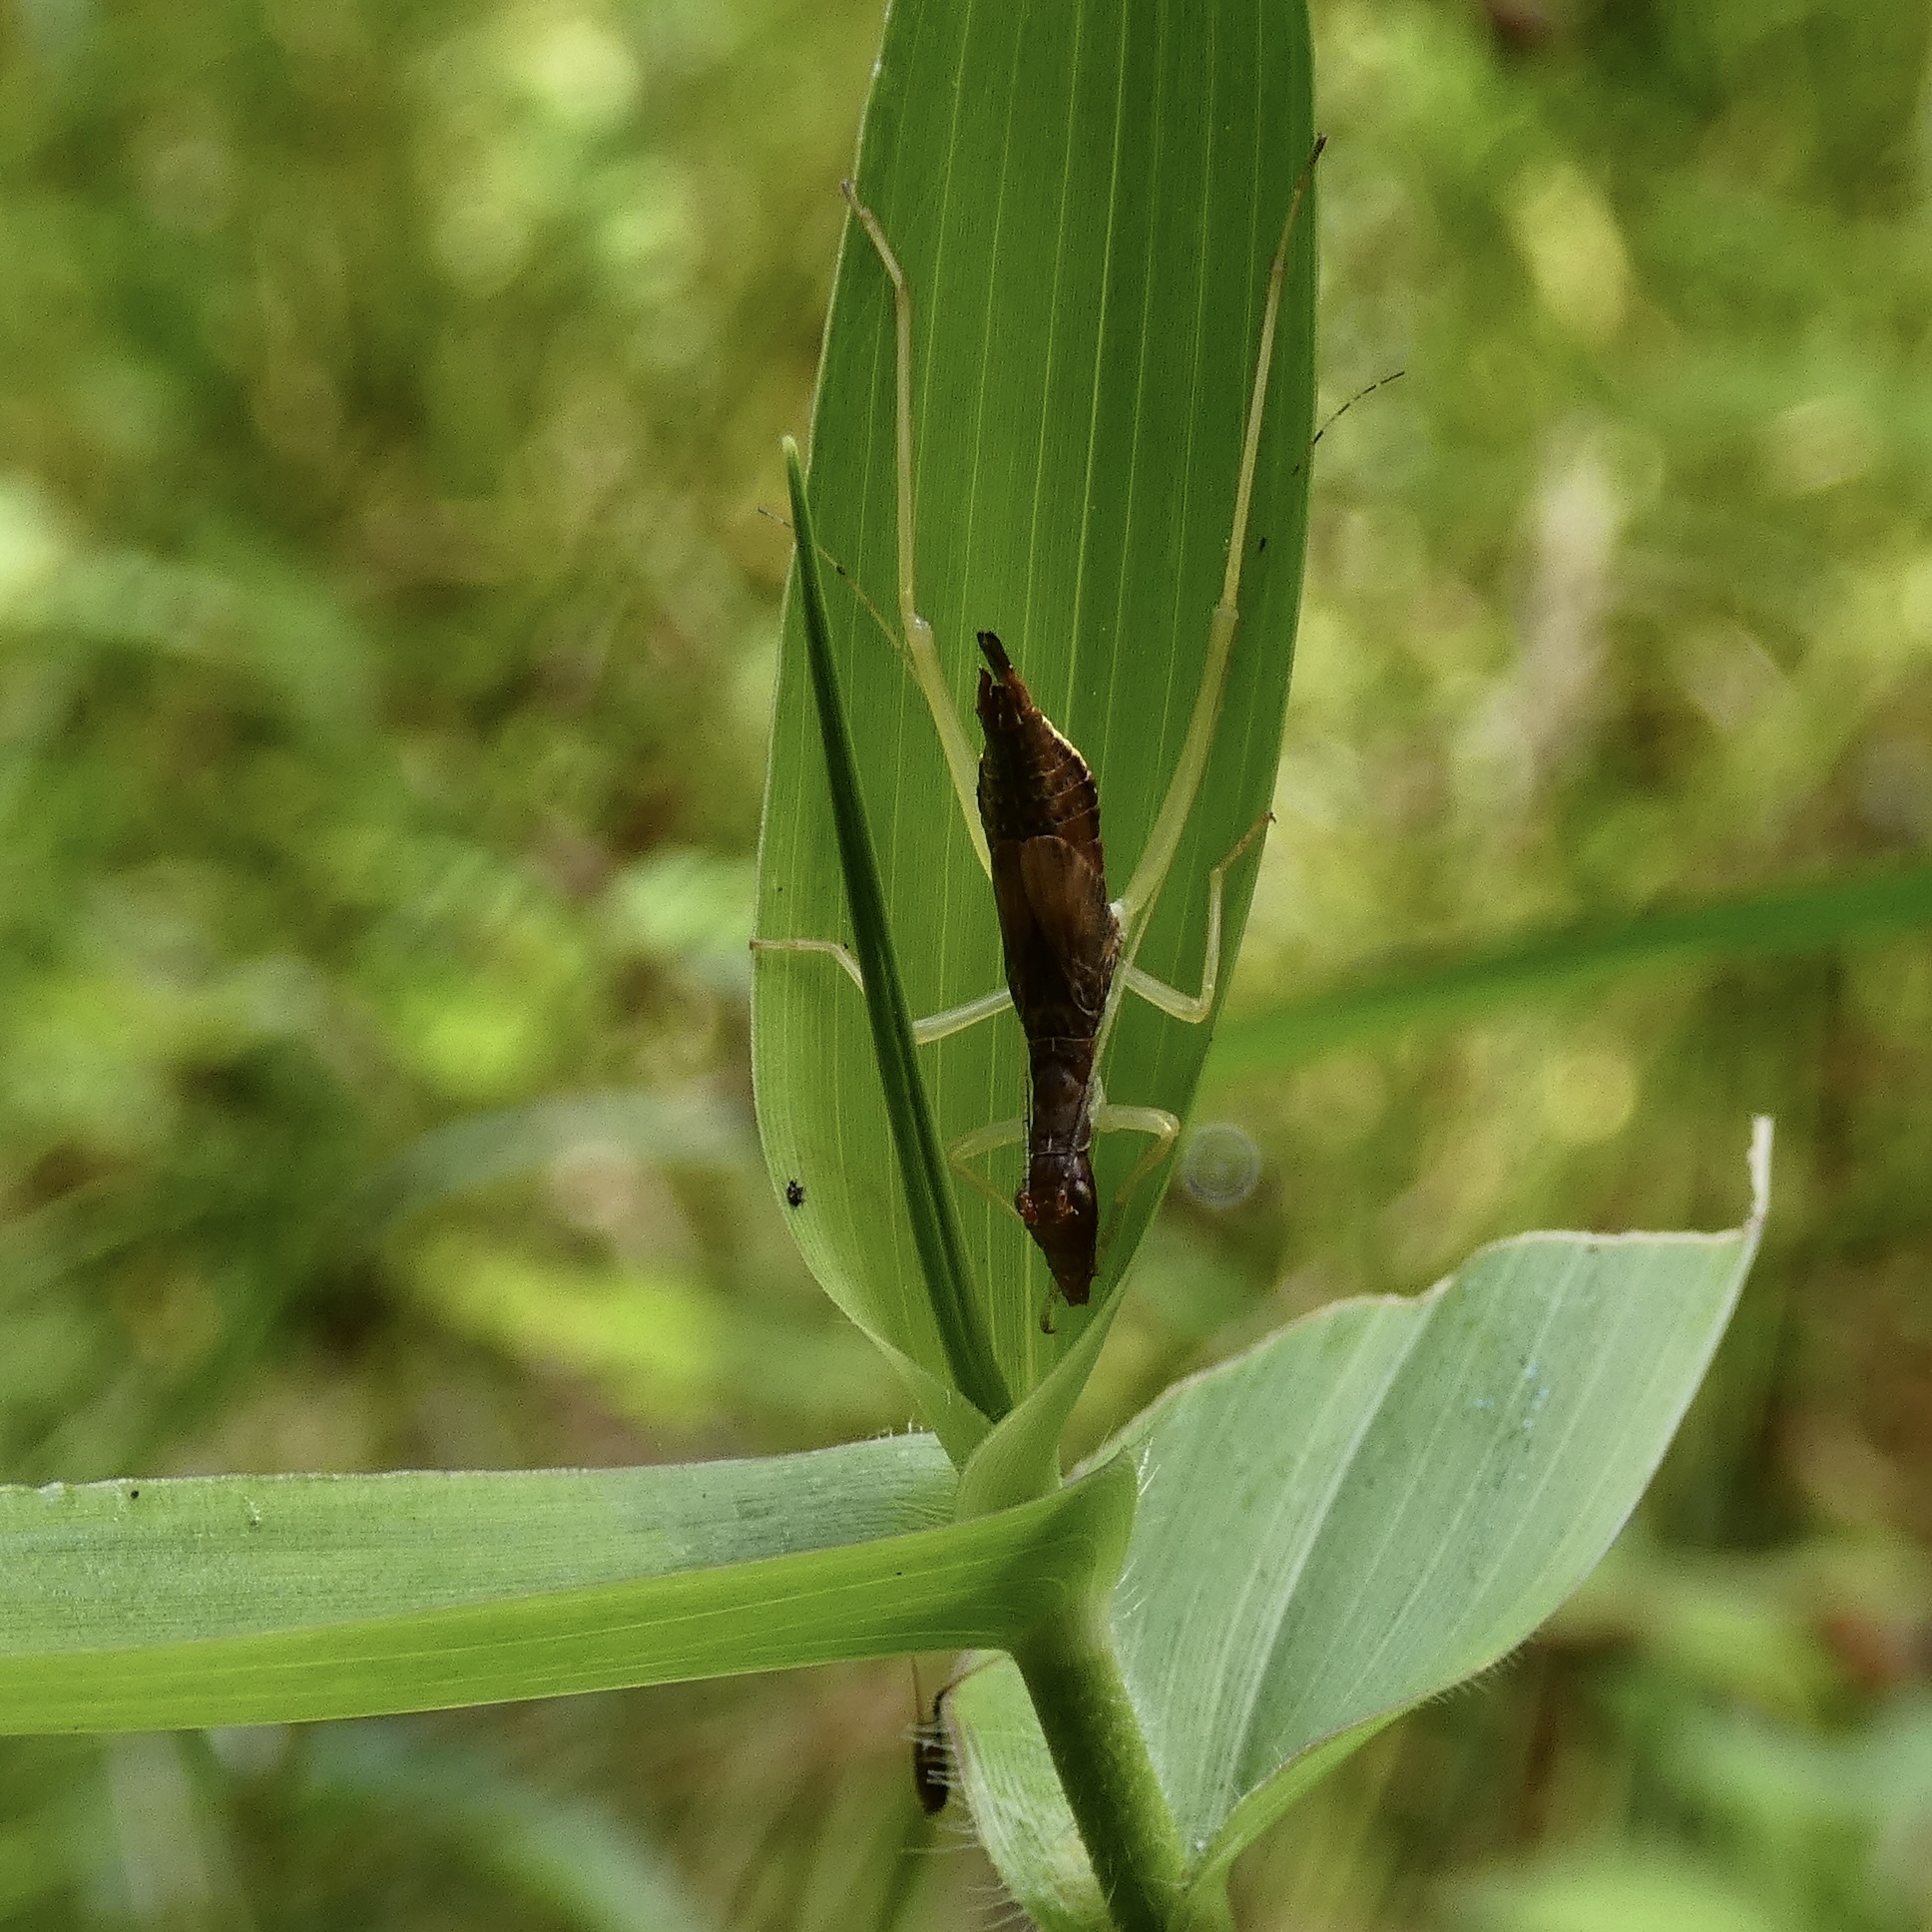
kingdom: Animalia
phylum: Arthropoda
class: Insecta
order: Orthoptera
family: Gryllidae
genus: Neoxabea
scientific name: Neoxabea bipunctata
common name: Two-spotted tree cricket
